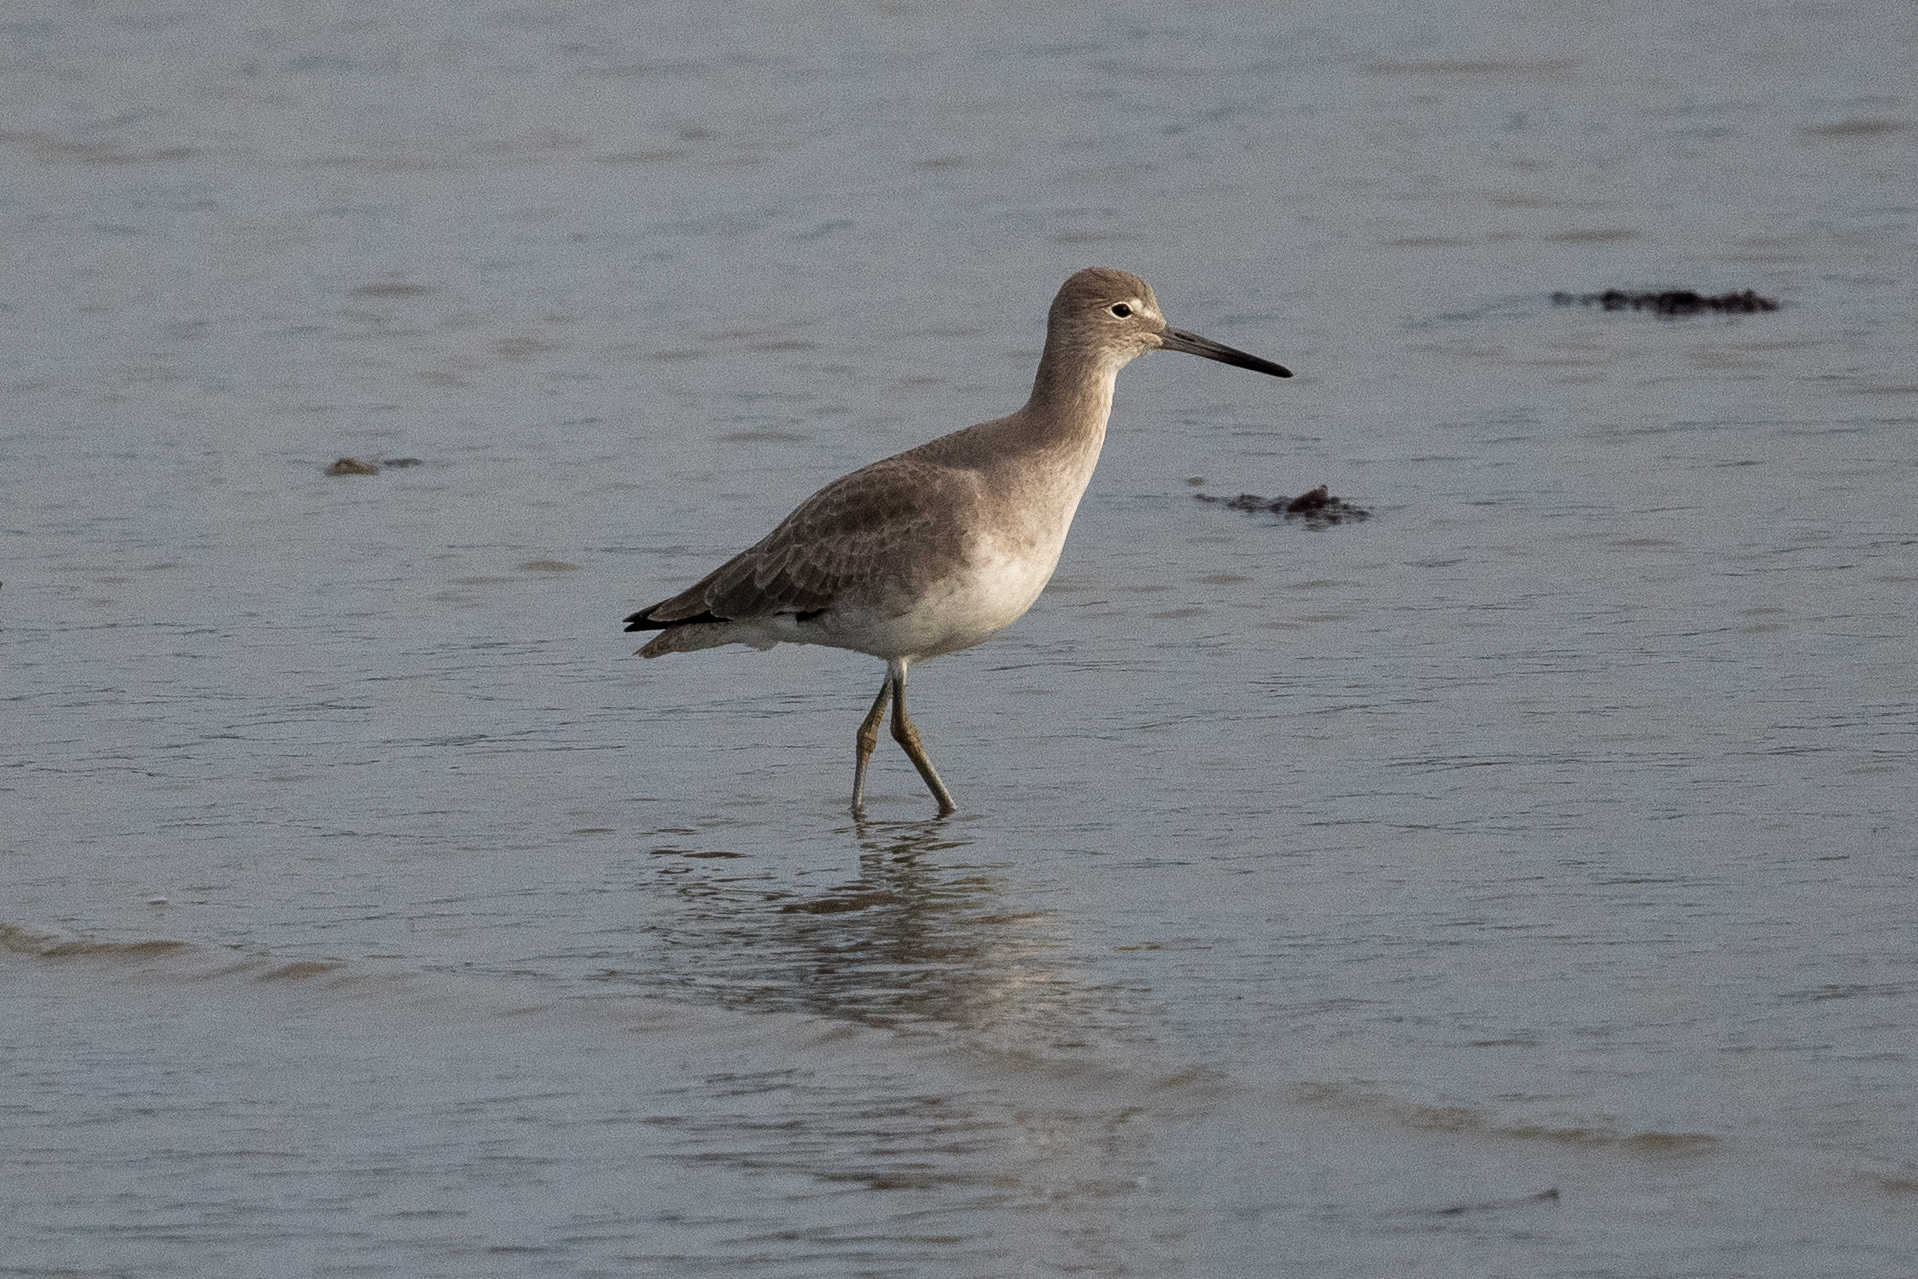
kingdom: Animalia
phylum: Chordata
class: Aves
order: Charadriiformes
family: Scolopacidae
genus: Tringa
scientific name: Tringa semipalmata
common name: Willet
